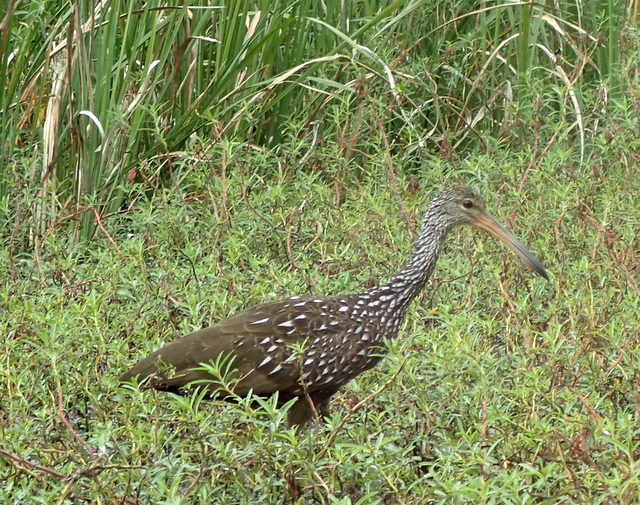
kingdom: Animalia
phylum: Chordata
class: Aves
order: Gruiformes
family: Aramidae
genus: Aramus
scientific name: Aramus guarauna
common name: Limpkin
